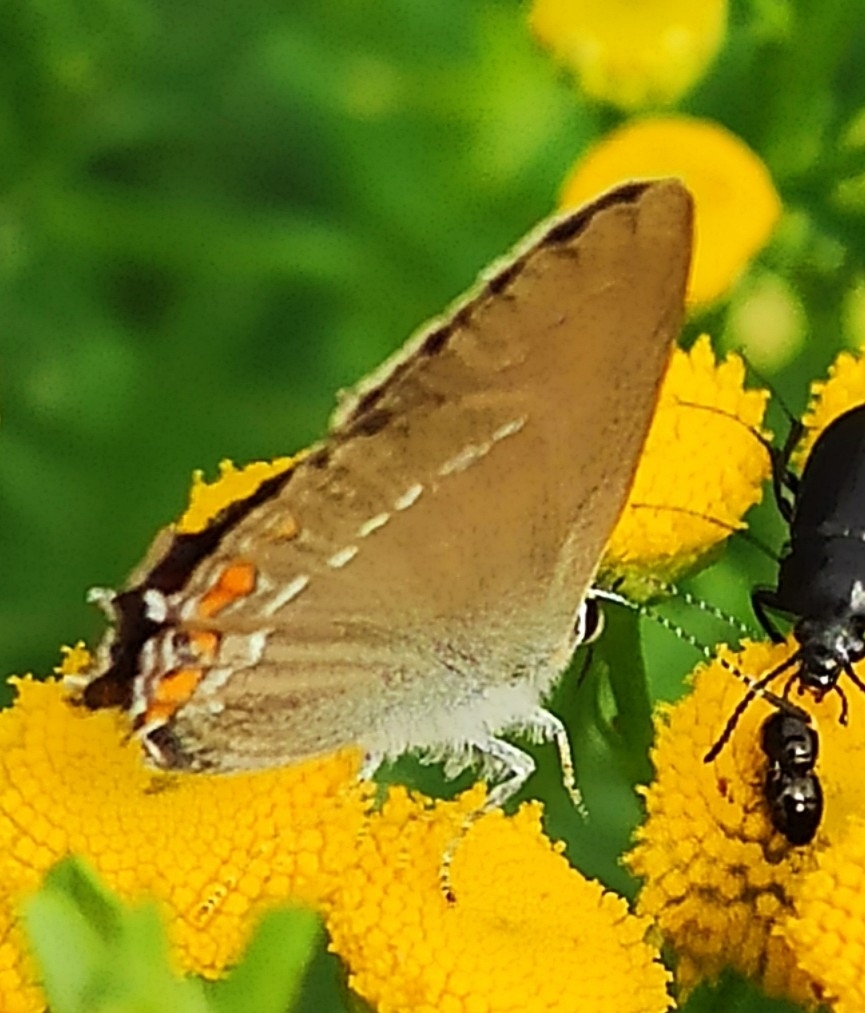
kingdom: Animalia
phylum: Arthropoda
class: Insecta
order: Lepidoptera
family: Lycaenidae
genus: Strymon
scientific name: Strymon acaciae
